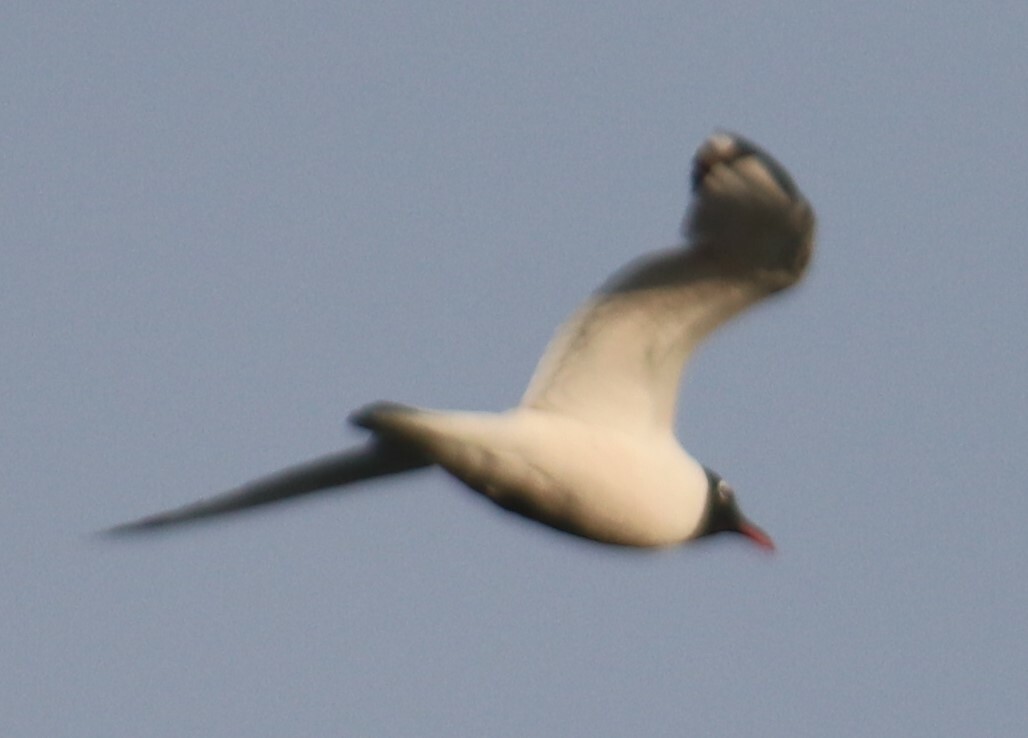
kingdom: Animalia
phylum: Chordata
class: Aves
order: Charadriiformes
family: Laridae
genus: Leucophaeus
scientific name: Leucophaeus pipixcan
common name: Franklin's gull
